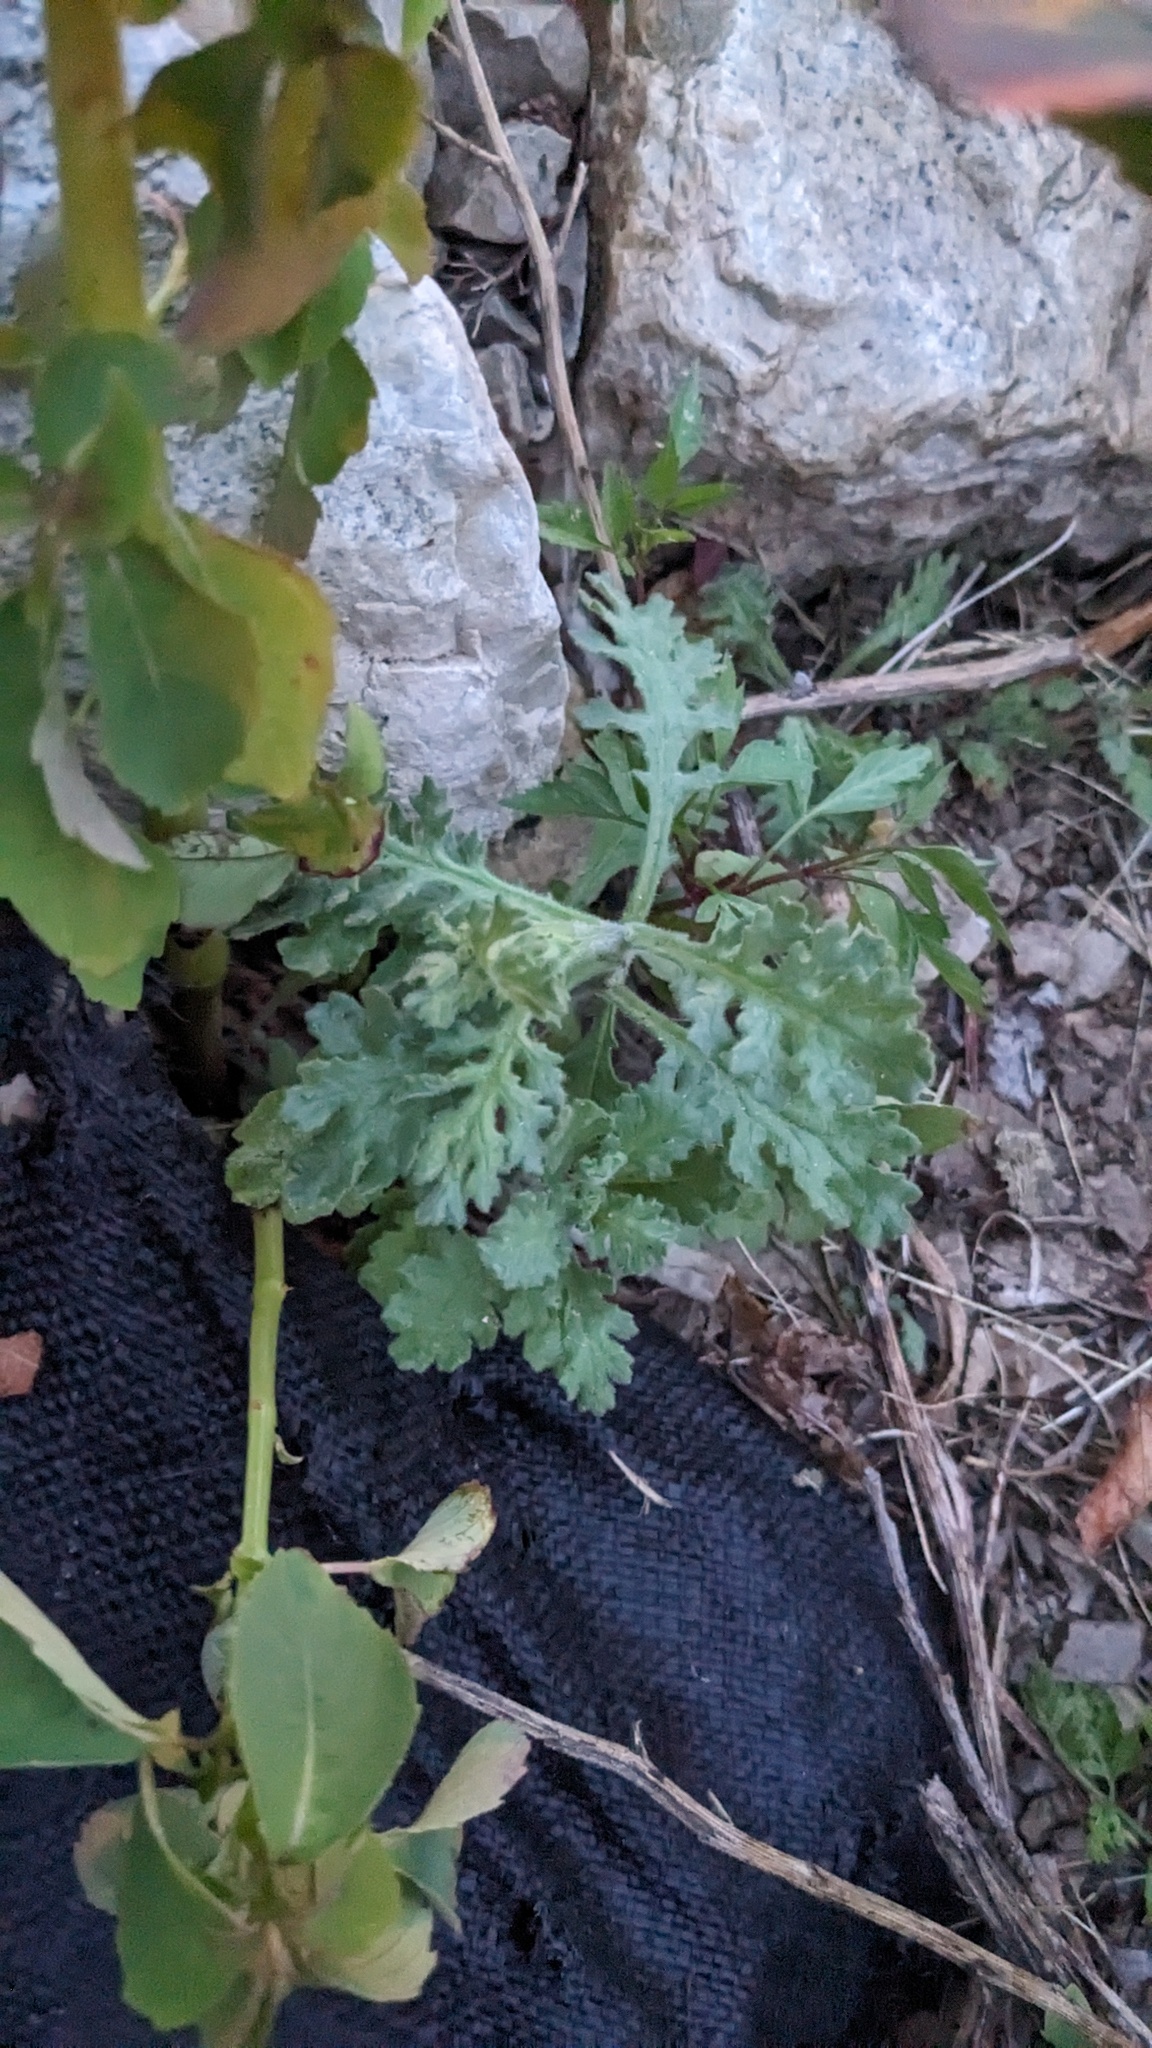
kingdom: Plantae
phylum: Tracheophyta
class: Magnoliopsida
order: Asterales
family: Asteraceae
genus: Senecio
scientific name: Senecio viscosus
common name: Sticky groundsel
